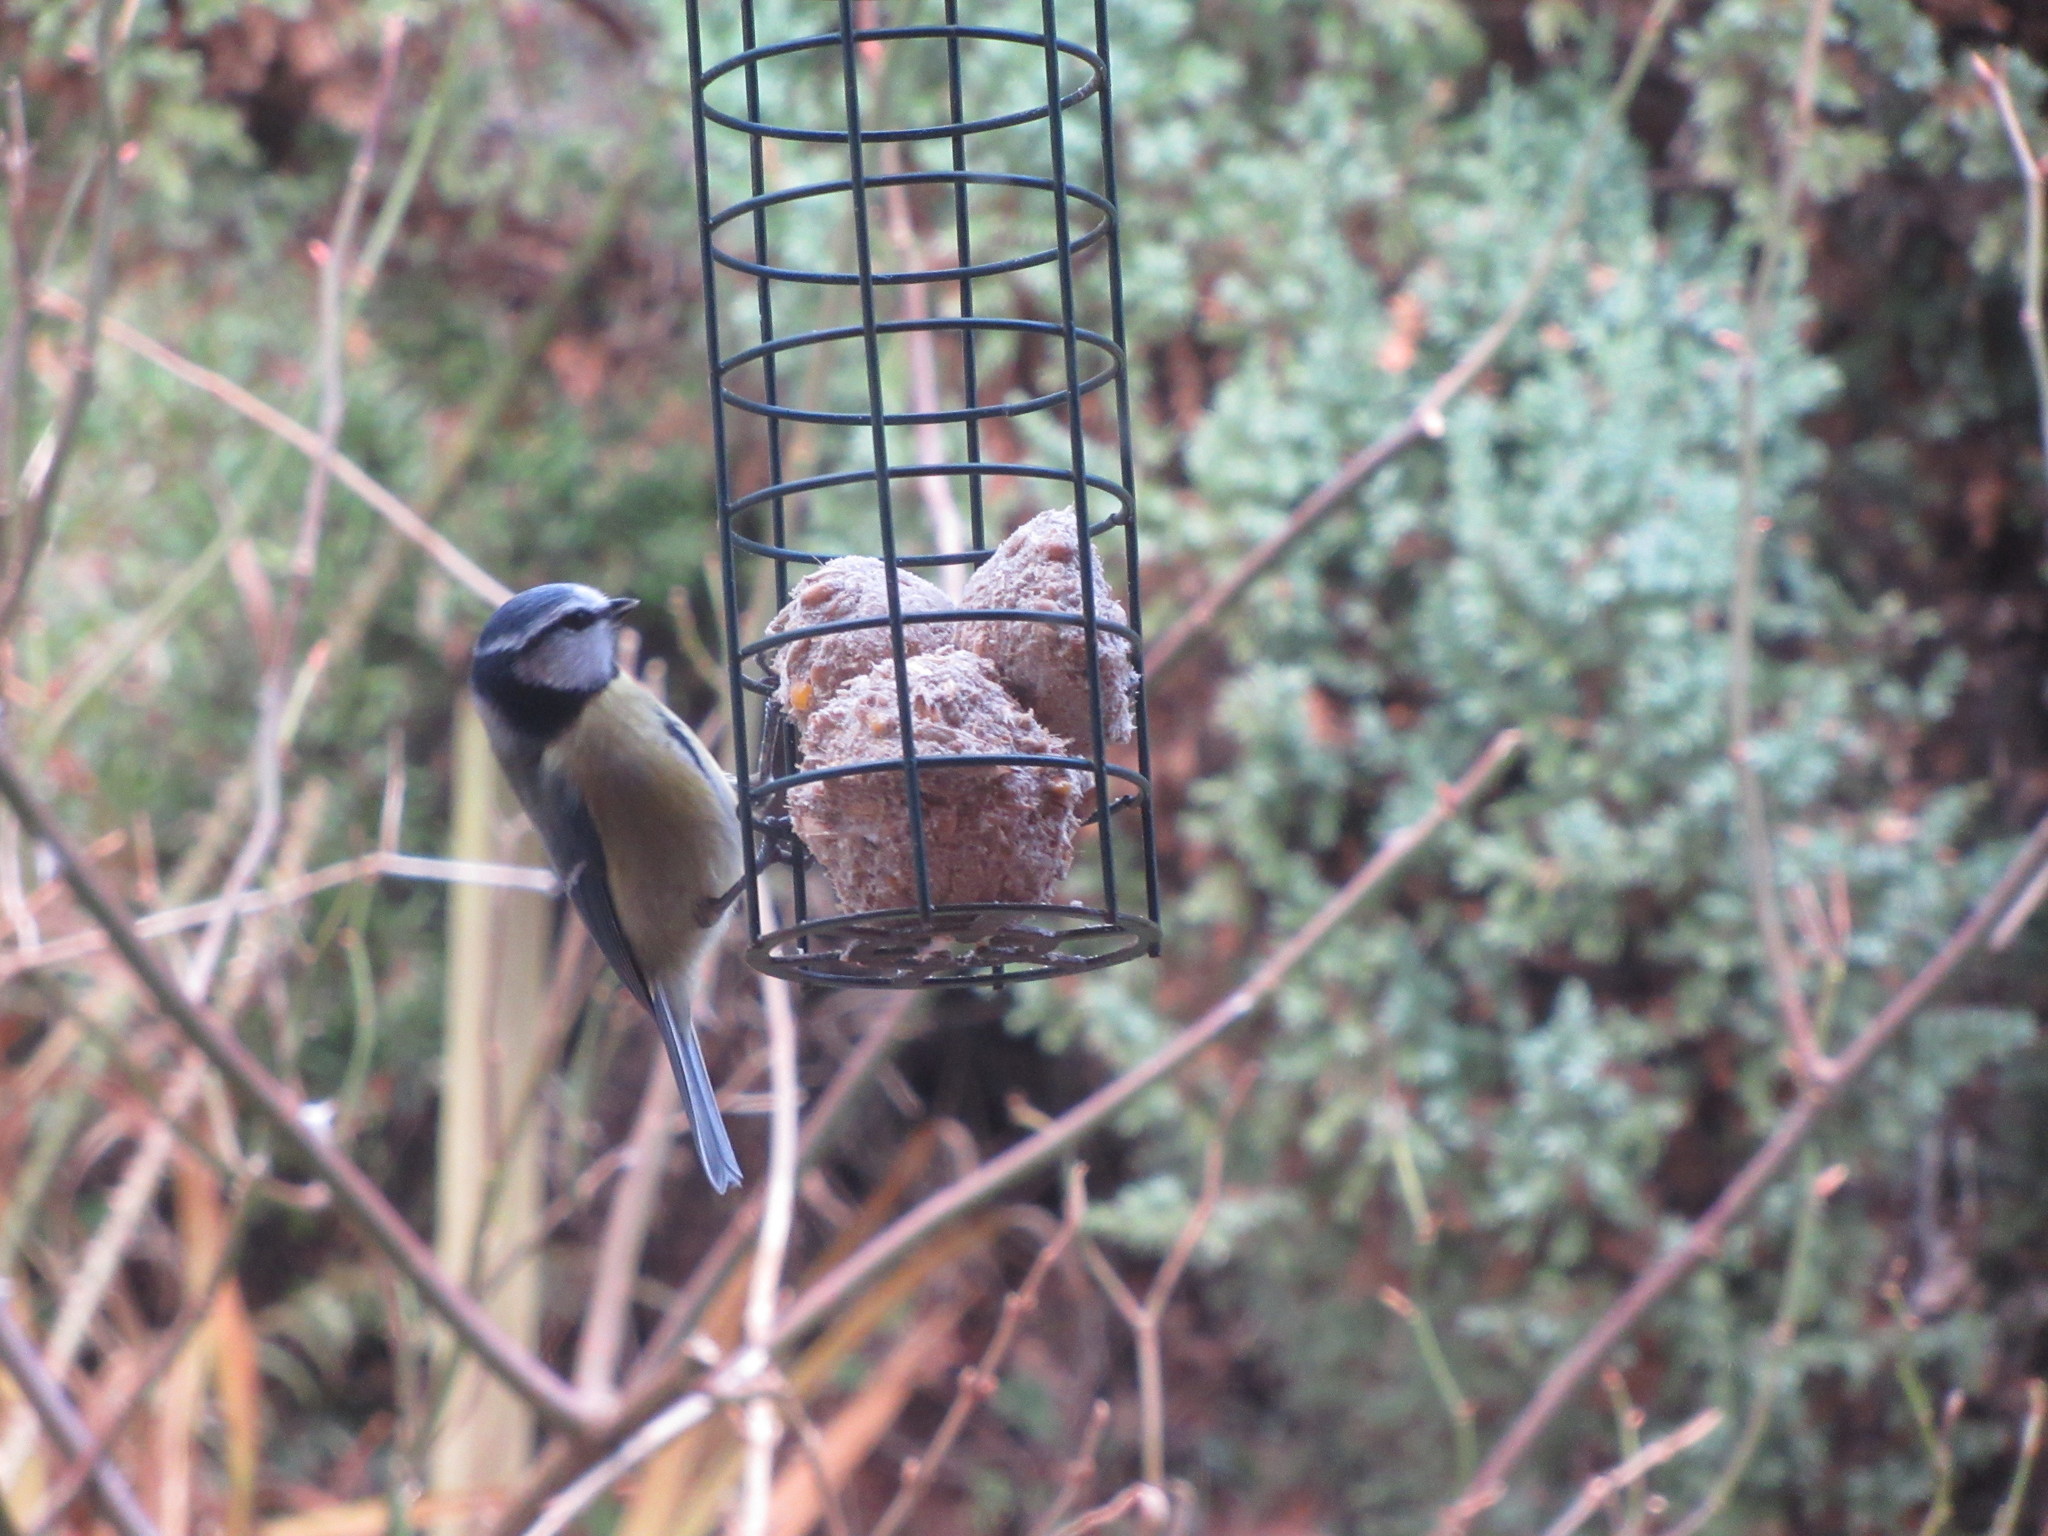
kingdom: Animalia
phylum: Chordata
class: Aves
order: Passeriformes
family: Paridae
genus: Cyanistes
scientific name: Cyanistes caeruleus
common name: Eurasian blue tit
